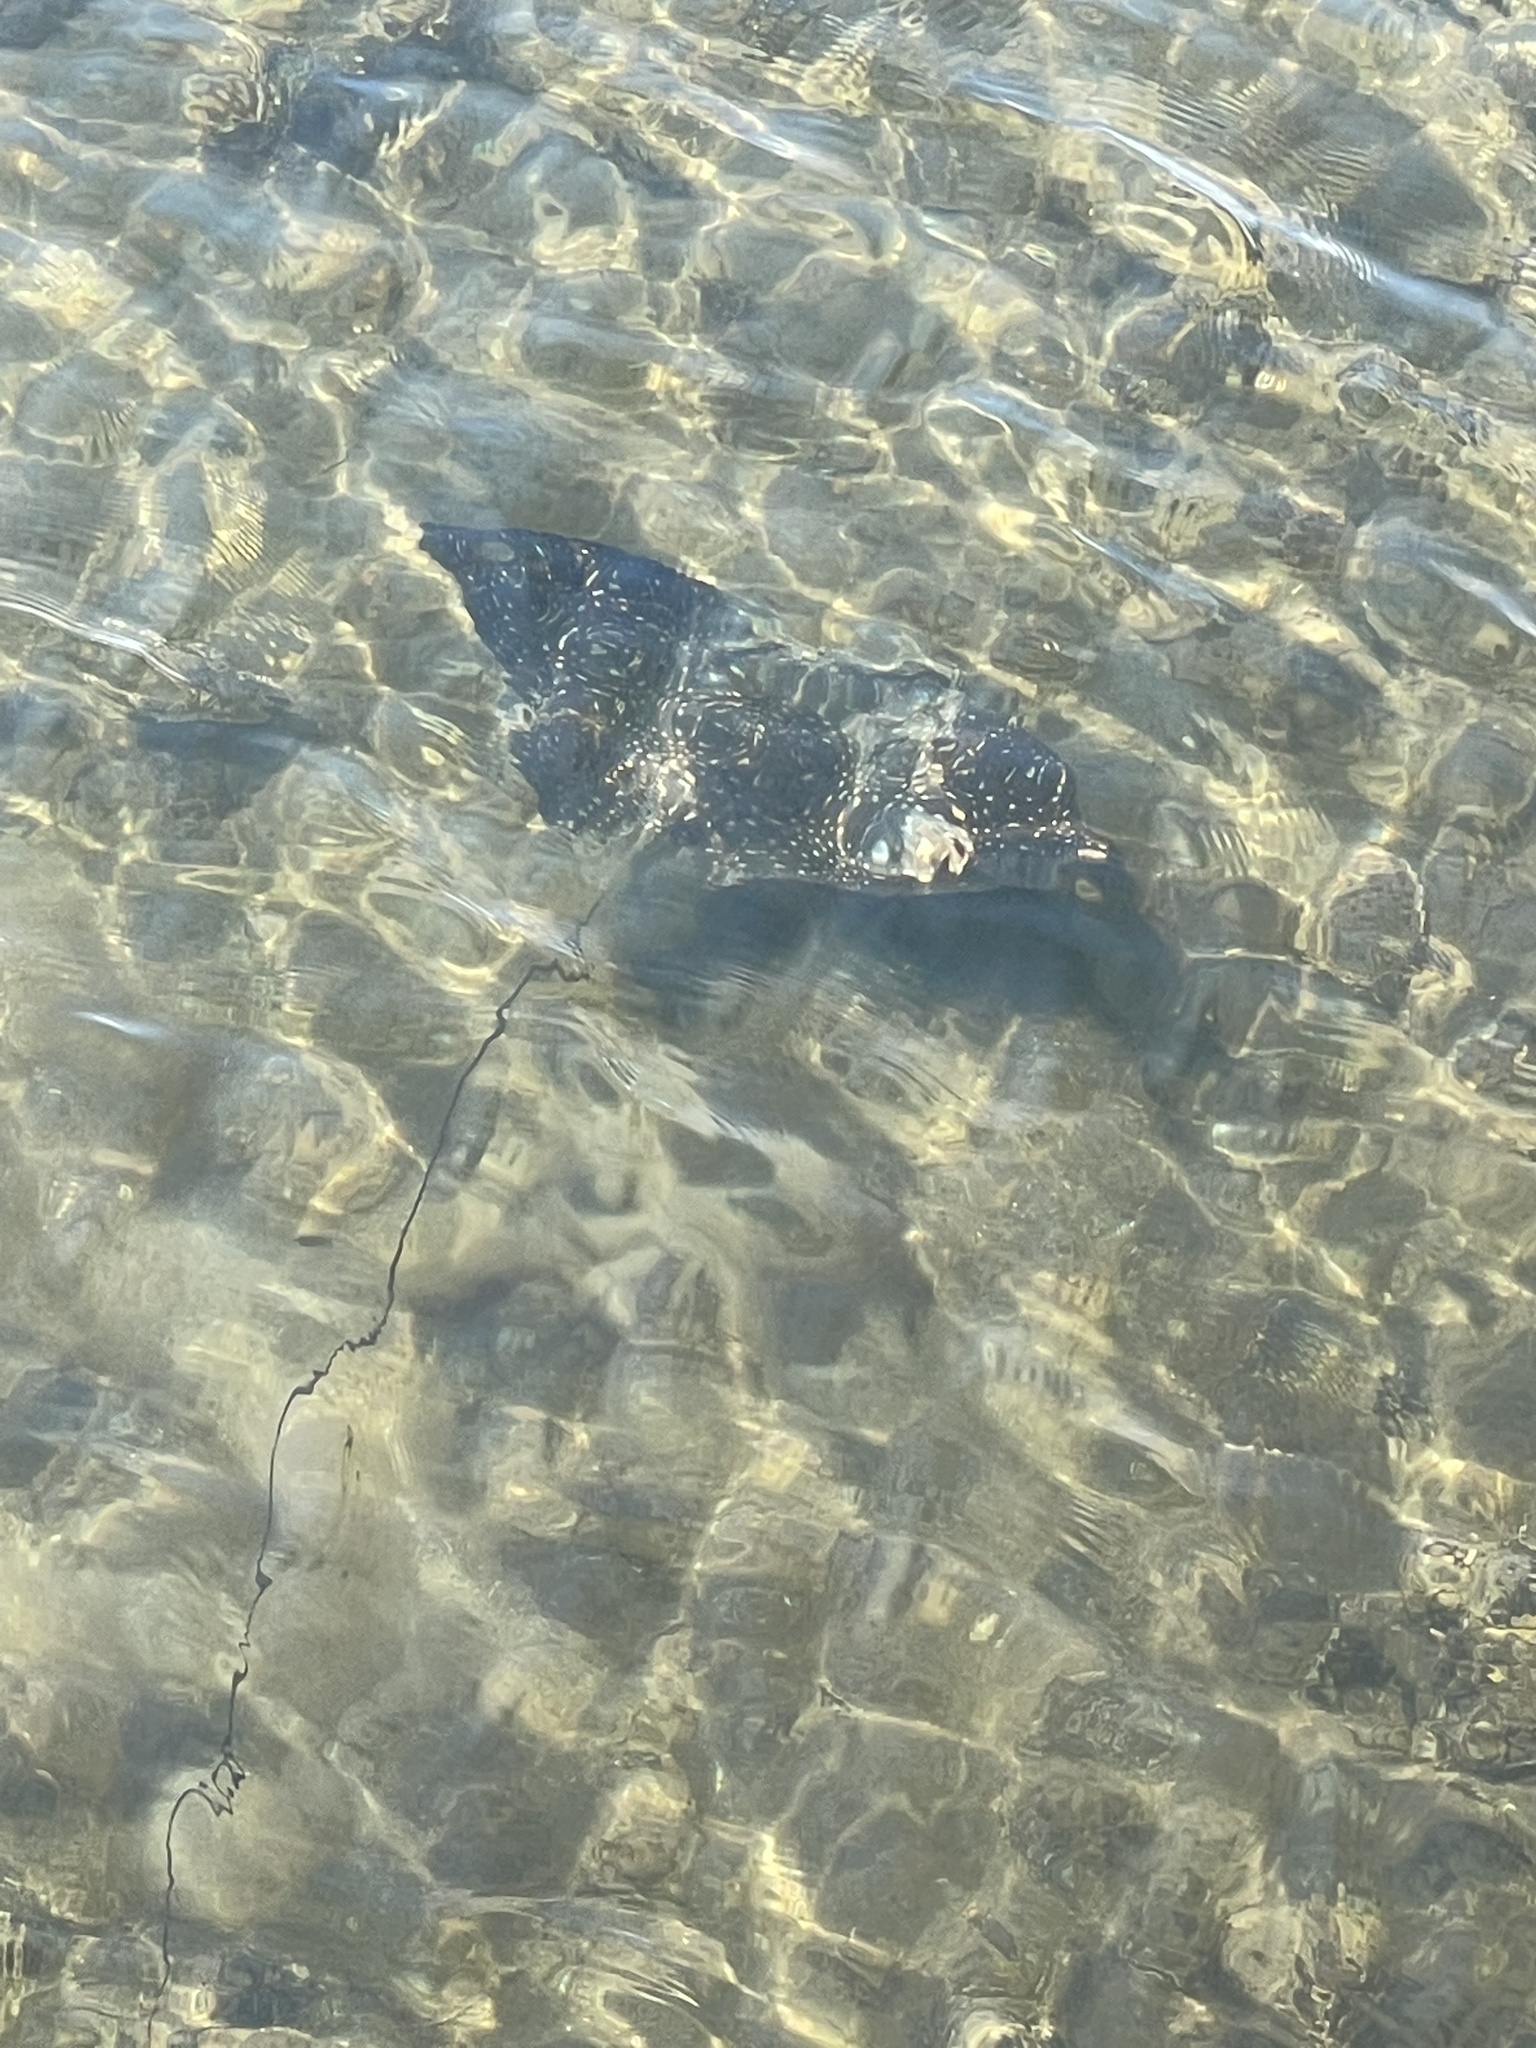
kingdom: Animalia
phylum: Chordata
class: Elasmobranchii
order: Myliobatiformes
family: Myliobatidae
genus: Aetobatus
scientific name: Aetobatus narinari
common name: Spotted eagle ray
